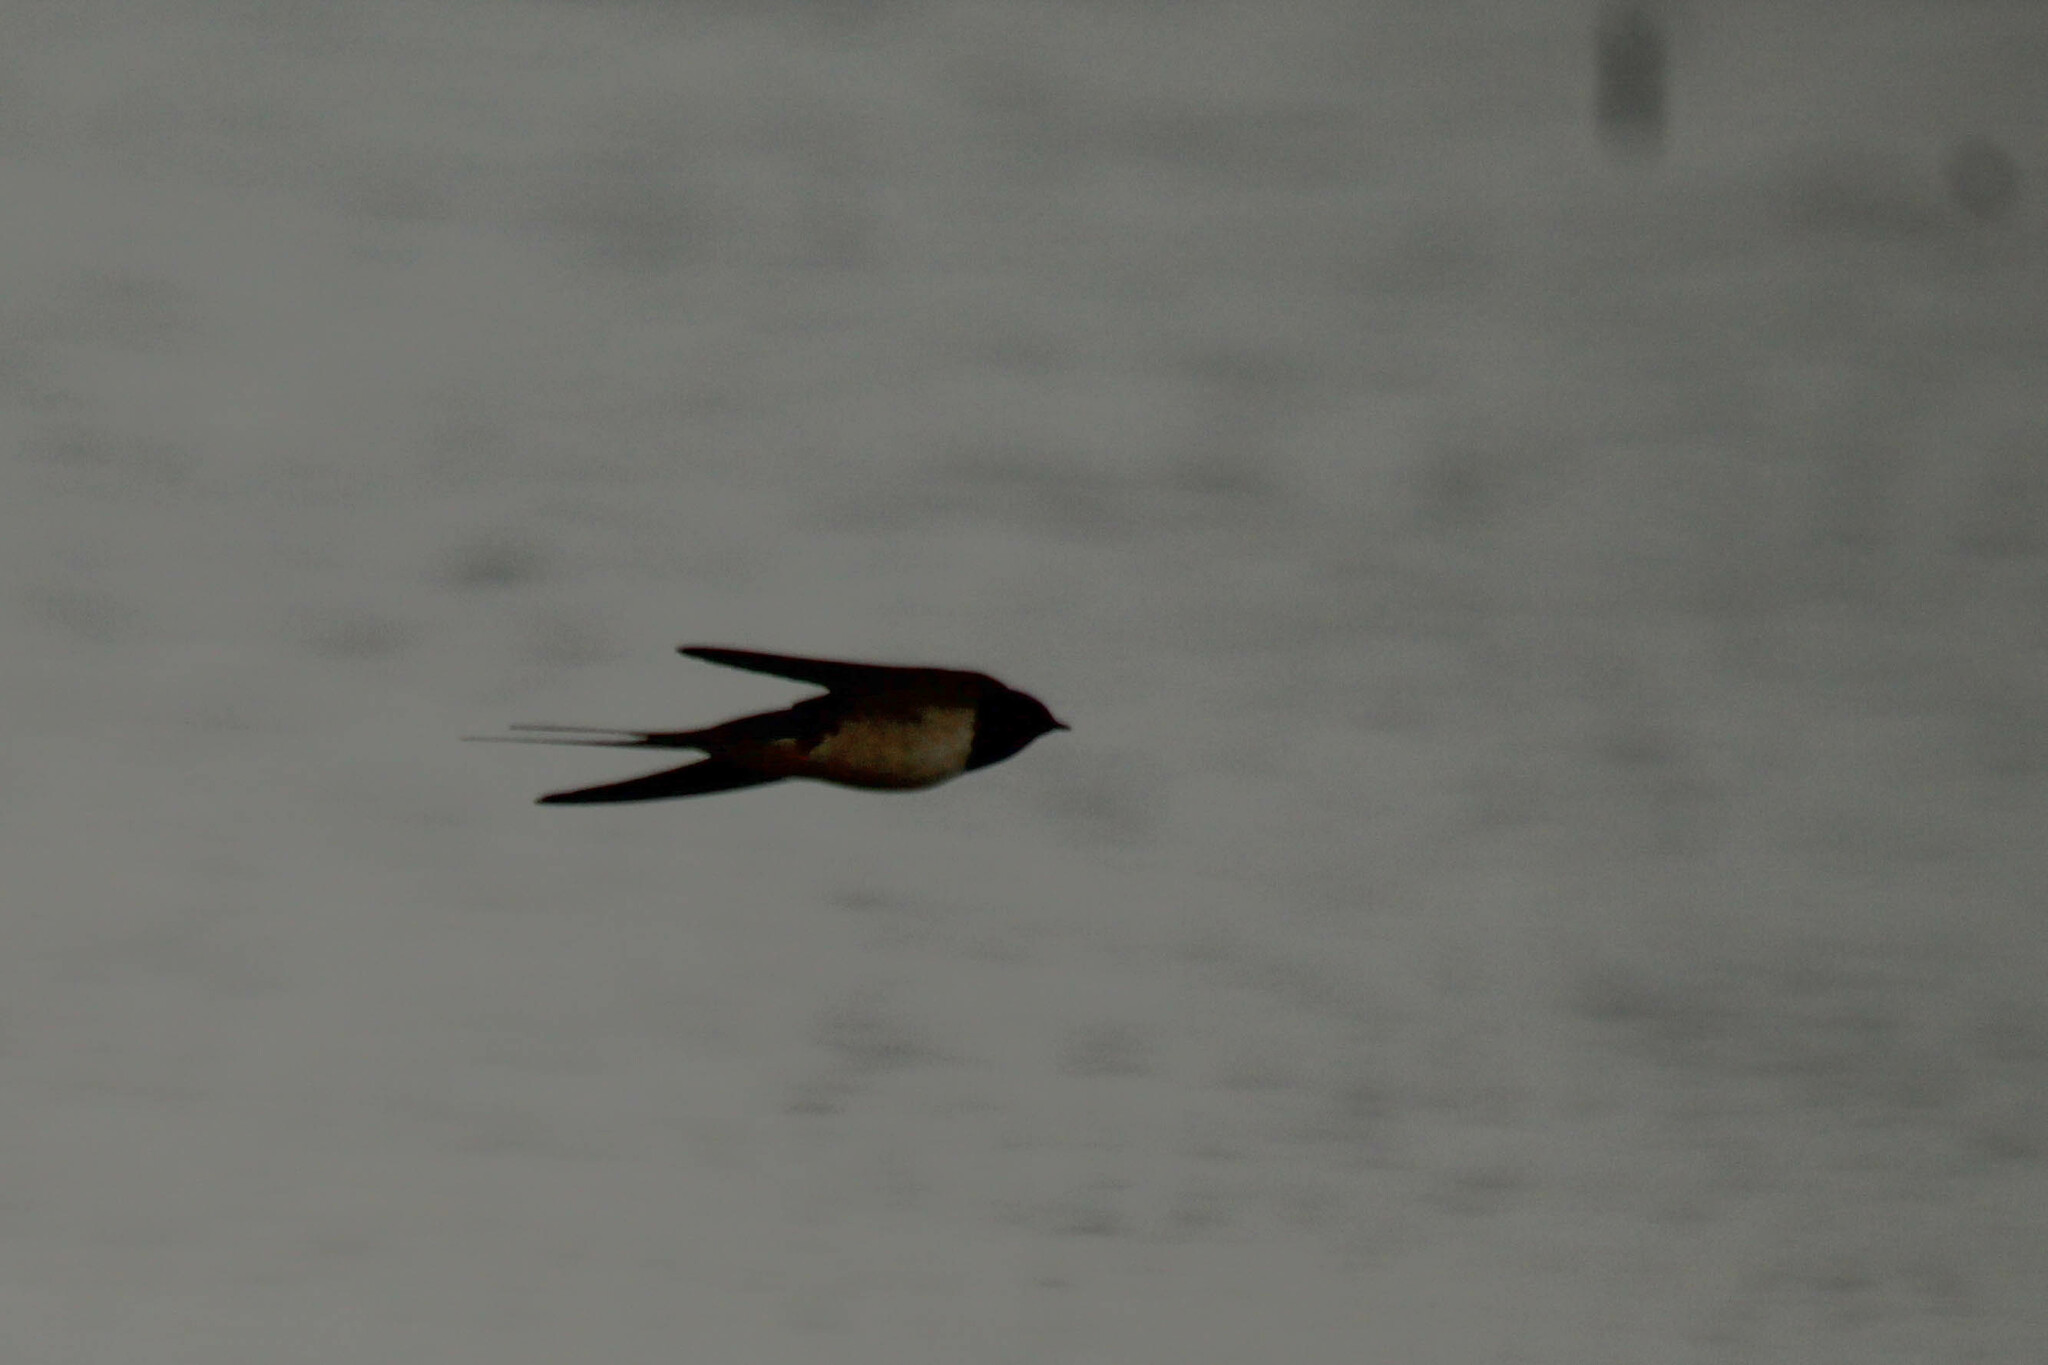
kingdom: Animalia
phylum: Chordata
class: Aves
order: Passeriformes
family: Hirundinidae
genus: Hirundo
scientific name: Hirundo rustica
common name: Barn swallow
